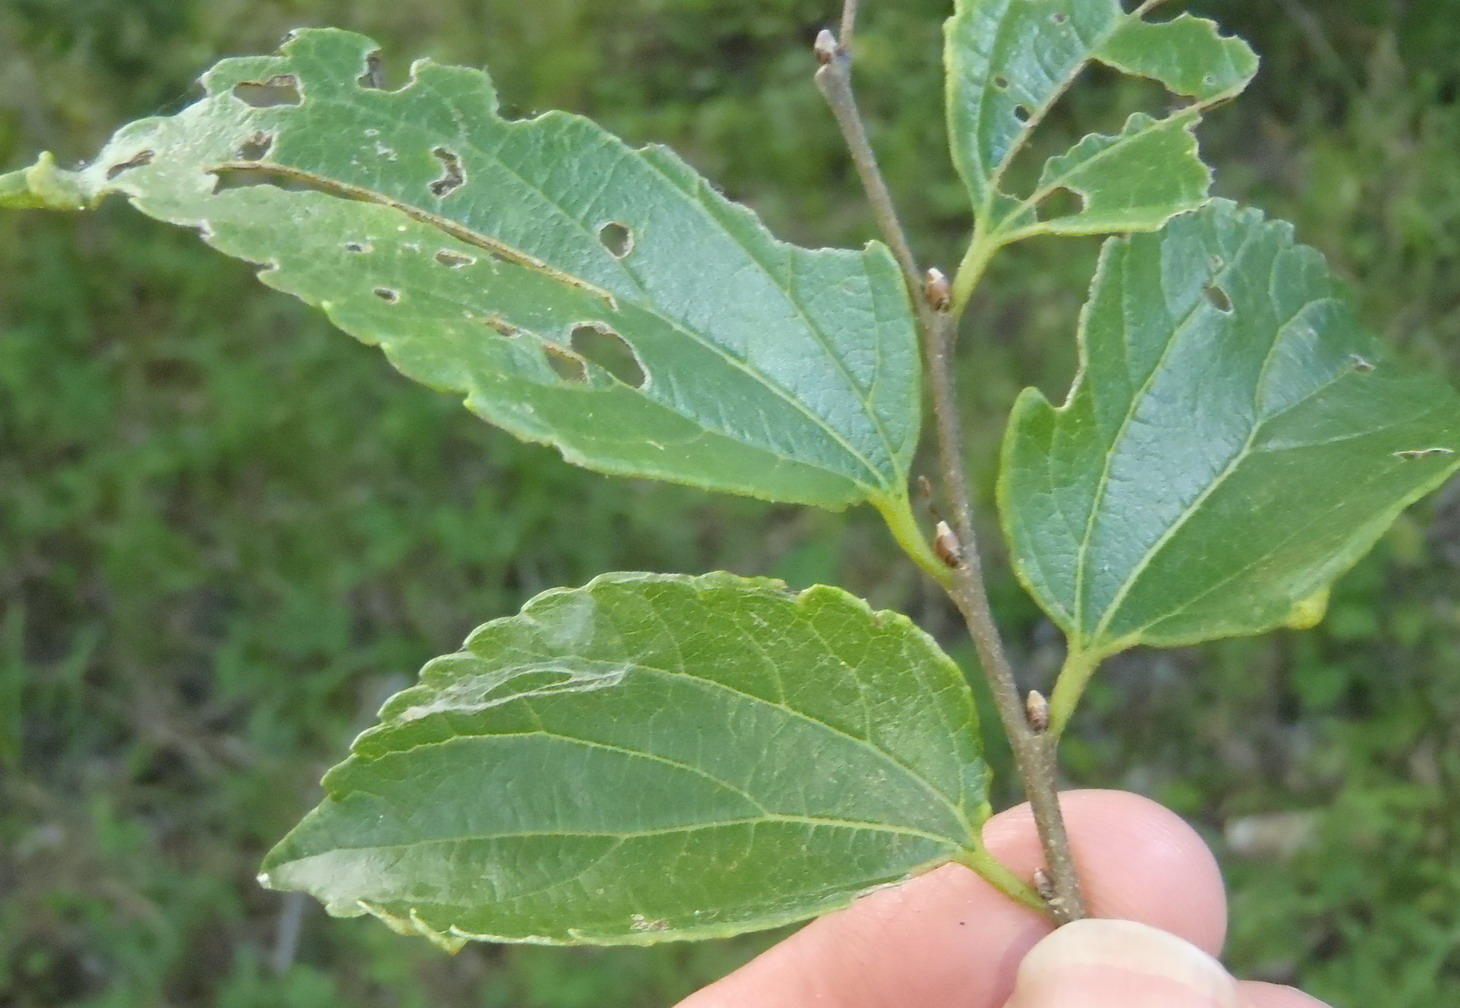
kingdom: Plantae
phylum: Tracheophyta
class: Magnoliopsida
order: Rosales
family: Cannabaceae
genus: Celtis
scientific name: Celtis africana
